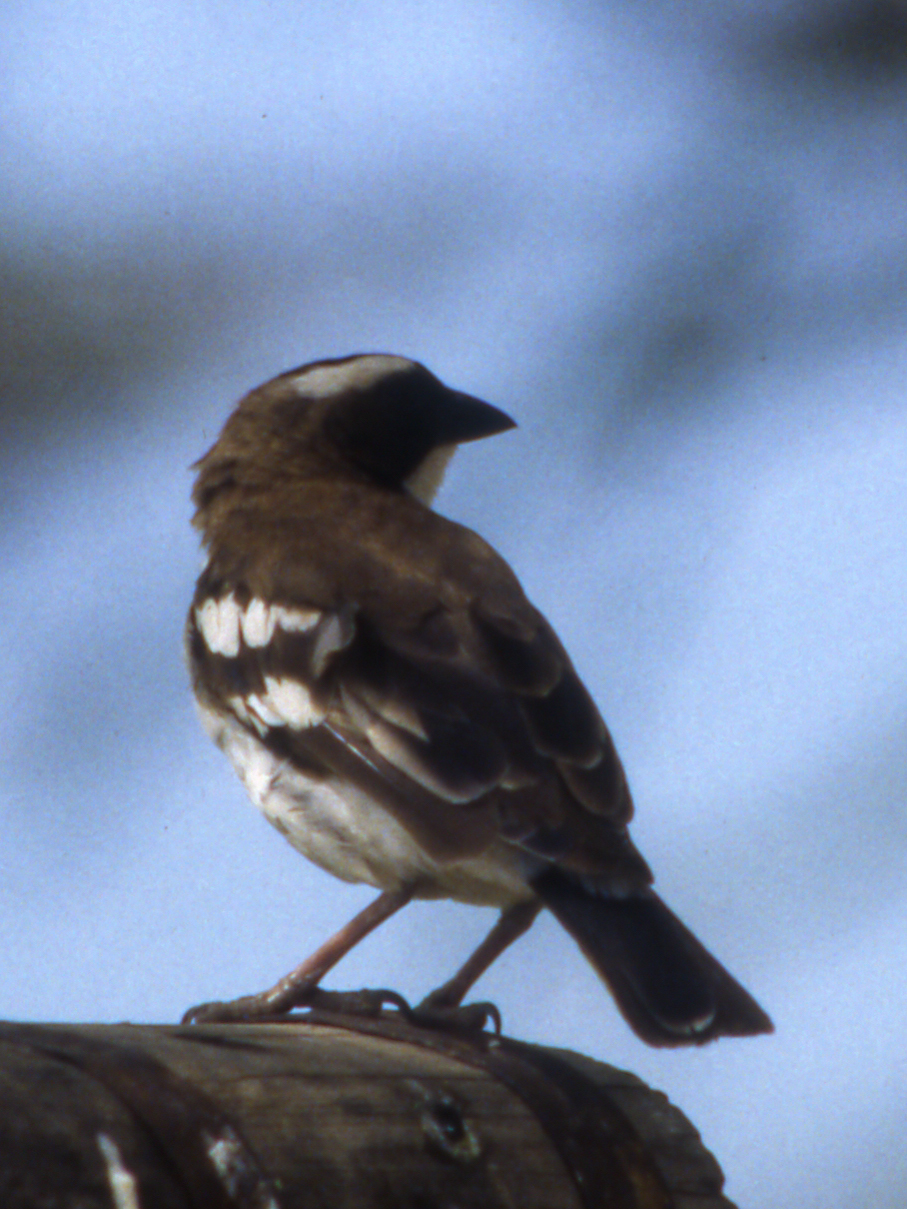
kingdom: Animalia
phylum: Chordata
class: Aves
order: Passeriformes
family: Passeridae
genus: Plocepasser
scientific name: Plocepasser mahali
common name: White-browed sparrow-weaver
